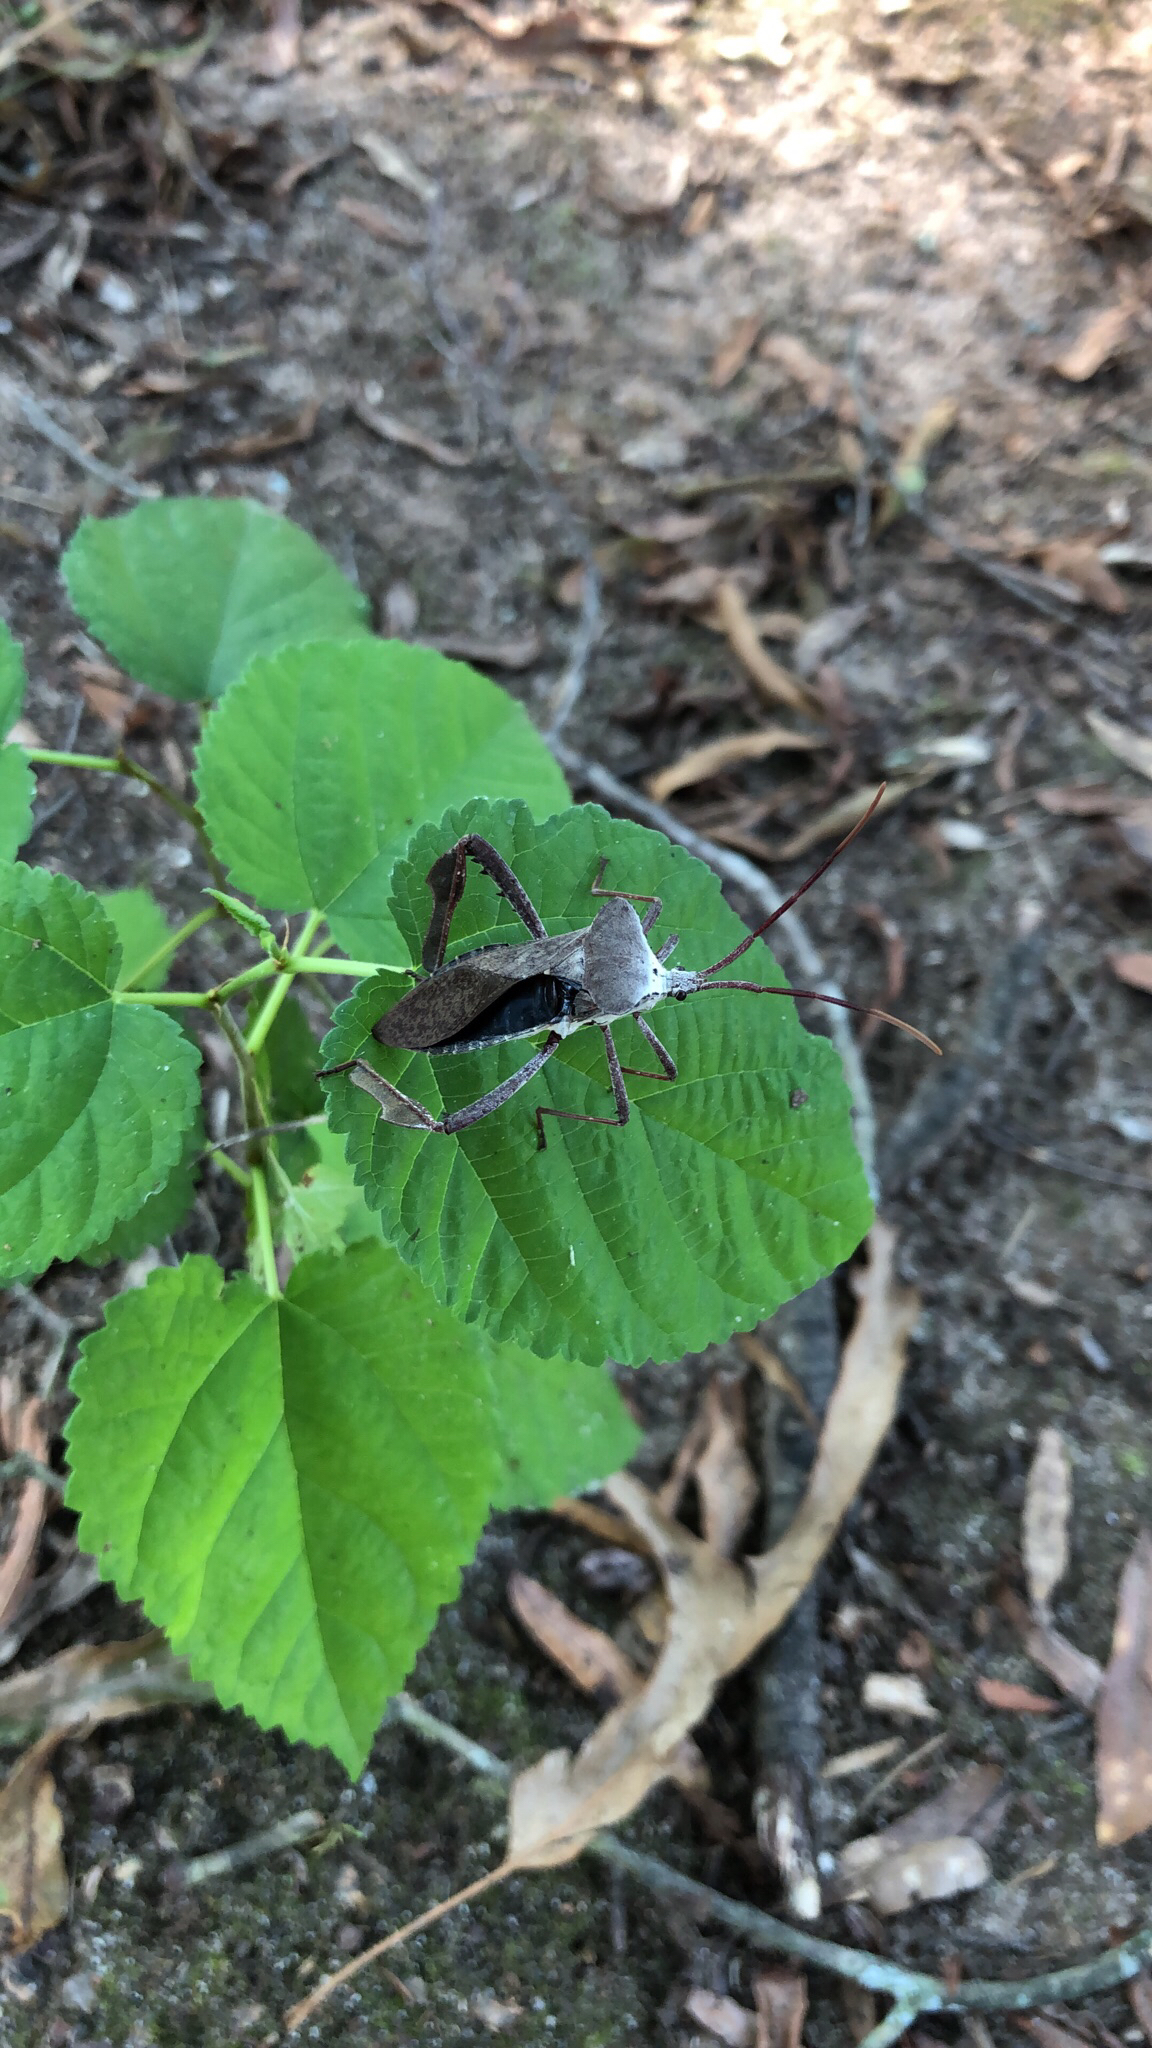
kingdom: Animalia
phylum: Arthropoda
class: Insecta
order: Hemiptera
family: Coreidae
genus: Acanthocephala
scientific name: Acanthocephala declivis
